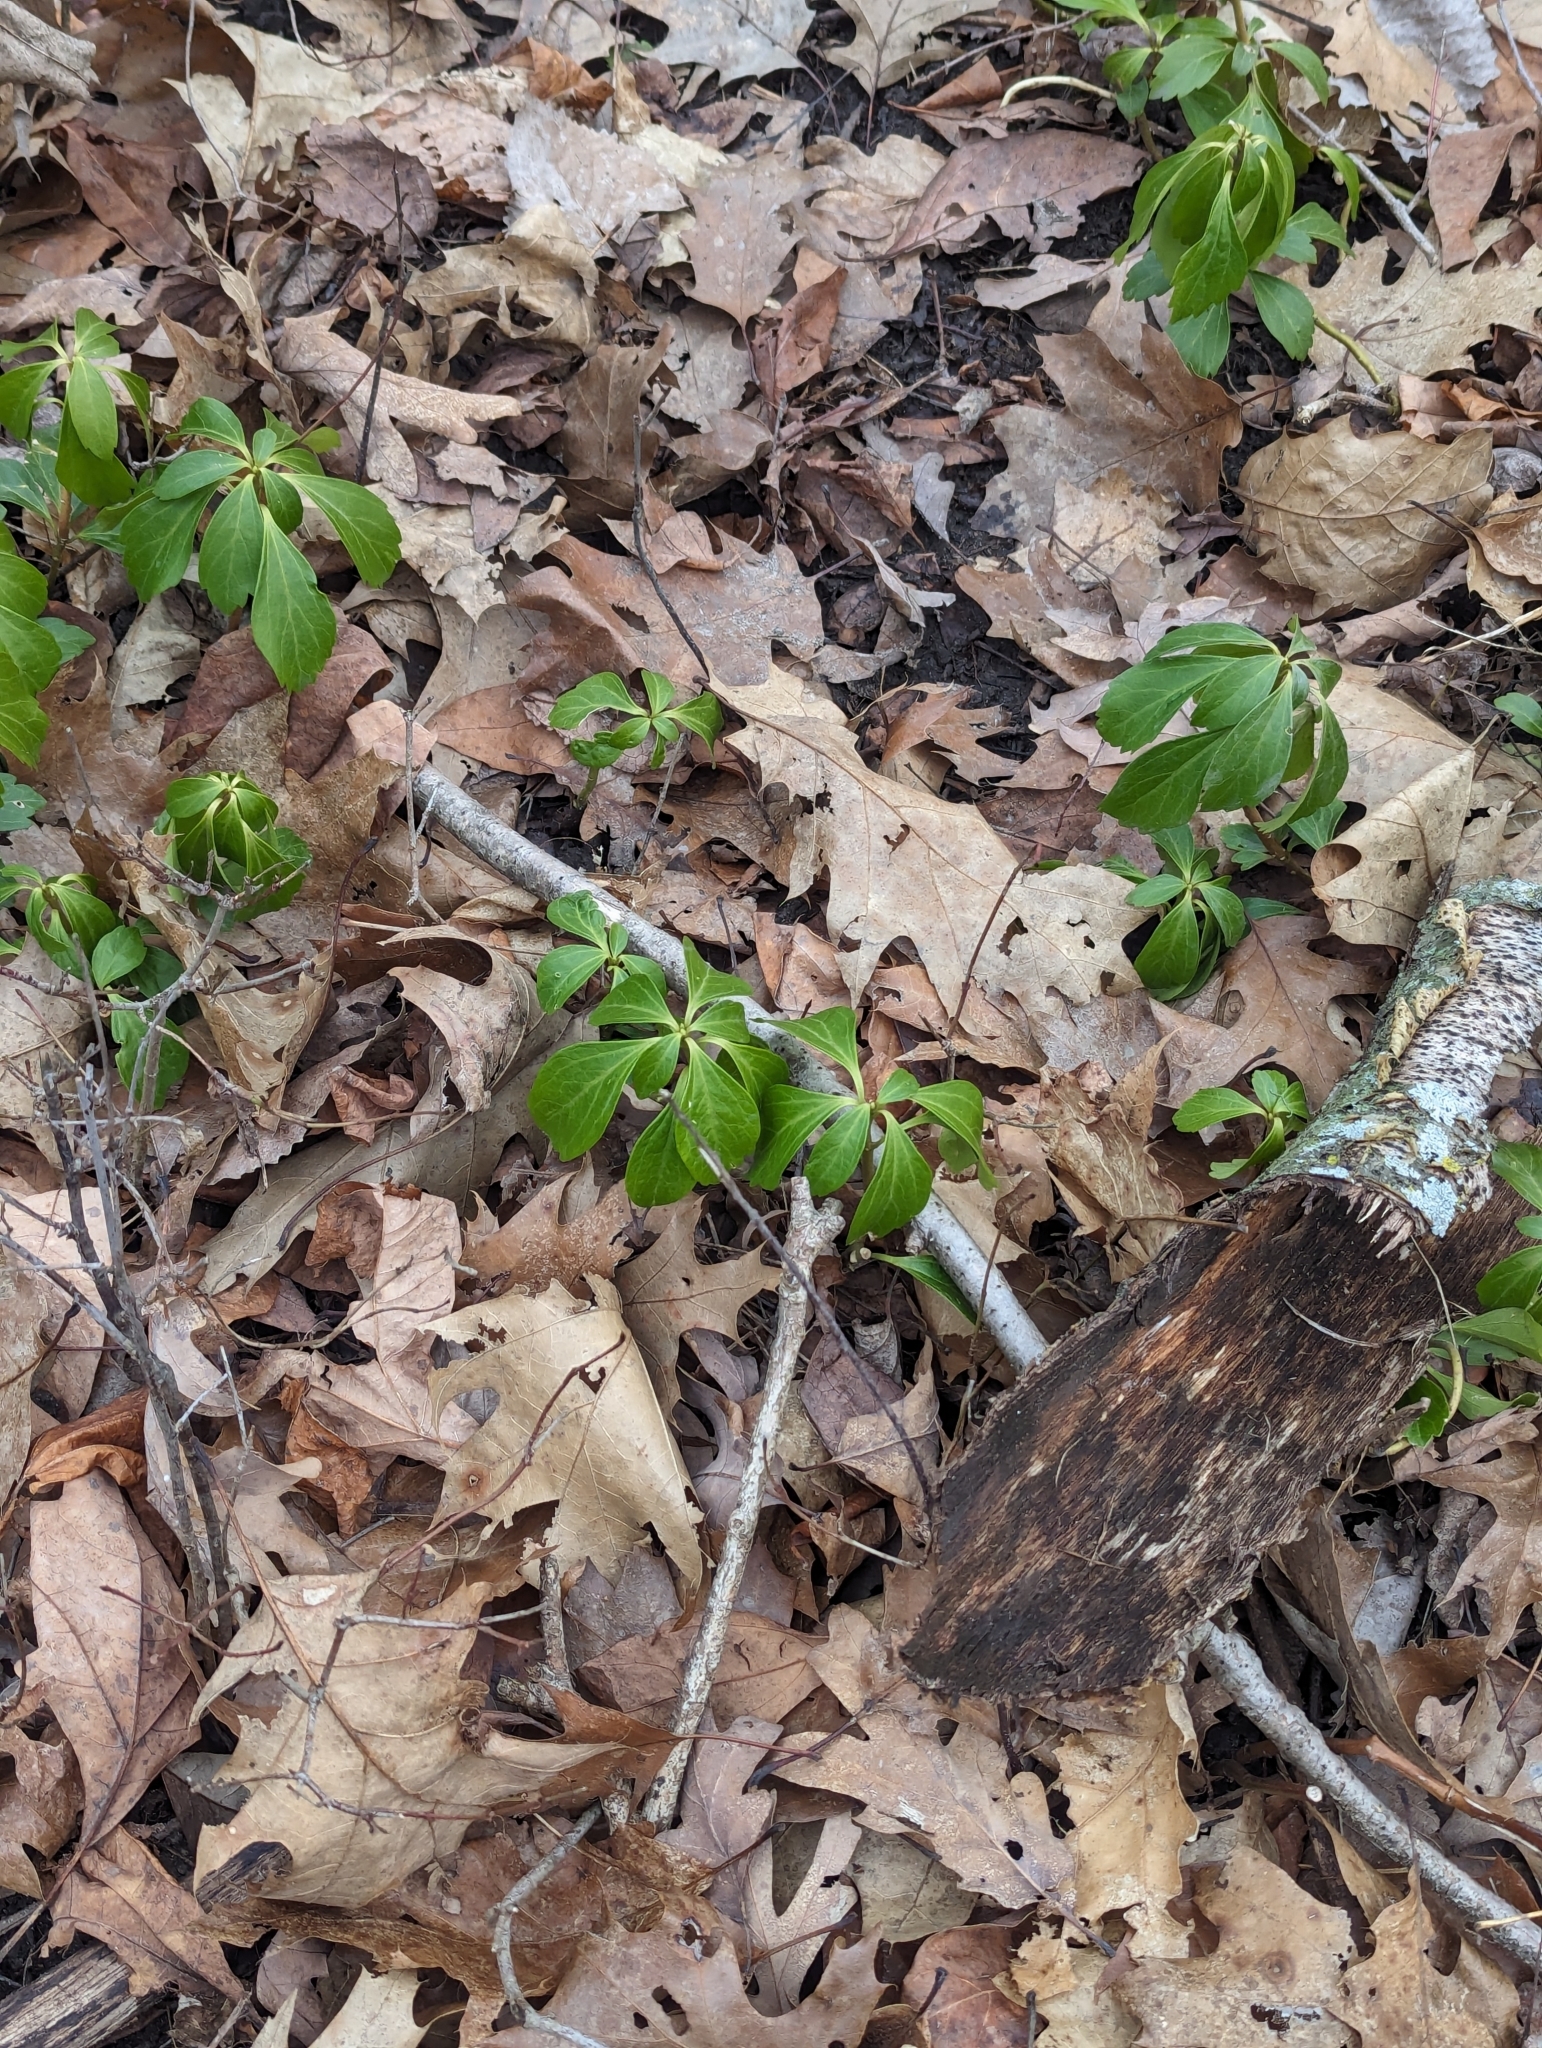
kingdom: Plantae
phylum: Tracheophyta
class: Magnoliopsida
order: Buxales
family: Buxaceae
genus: Pachysandra
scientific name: Pachysandra terminalis
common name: Japanese pachysandra
